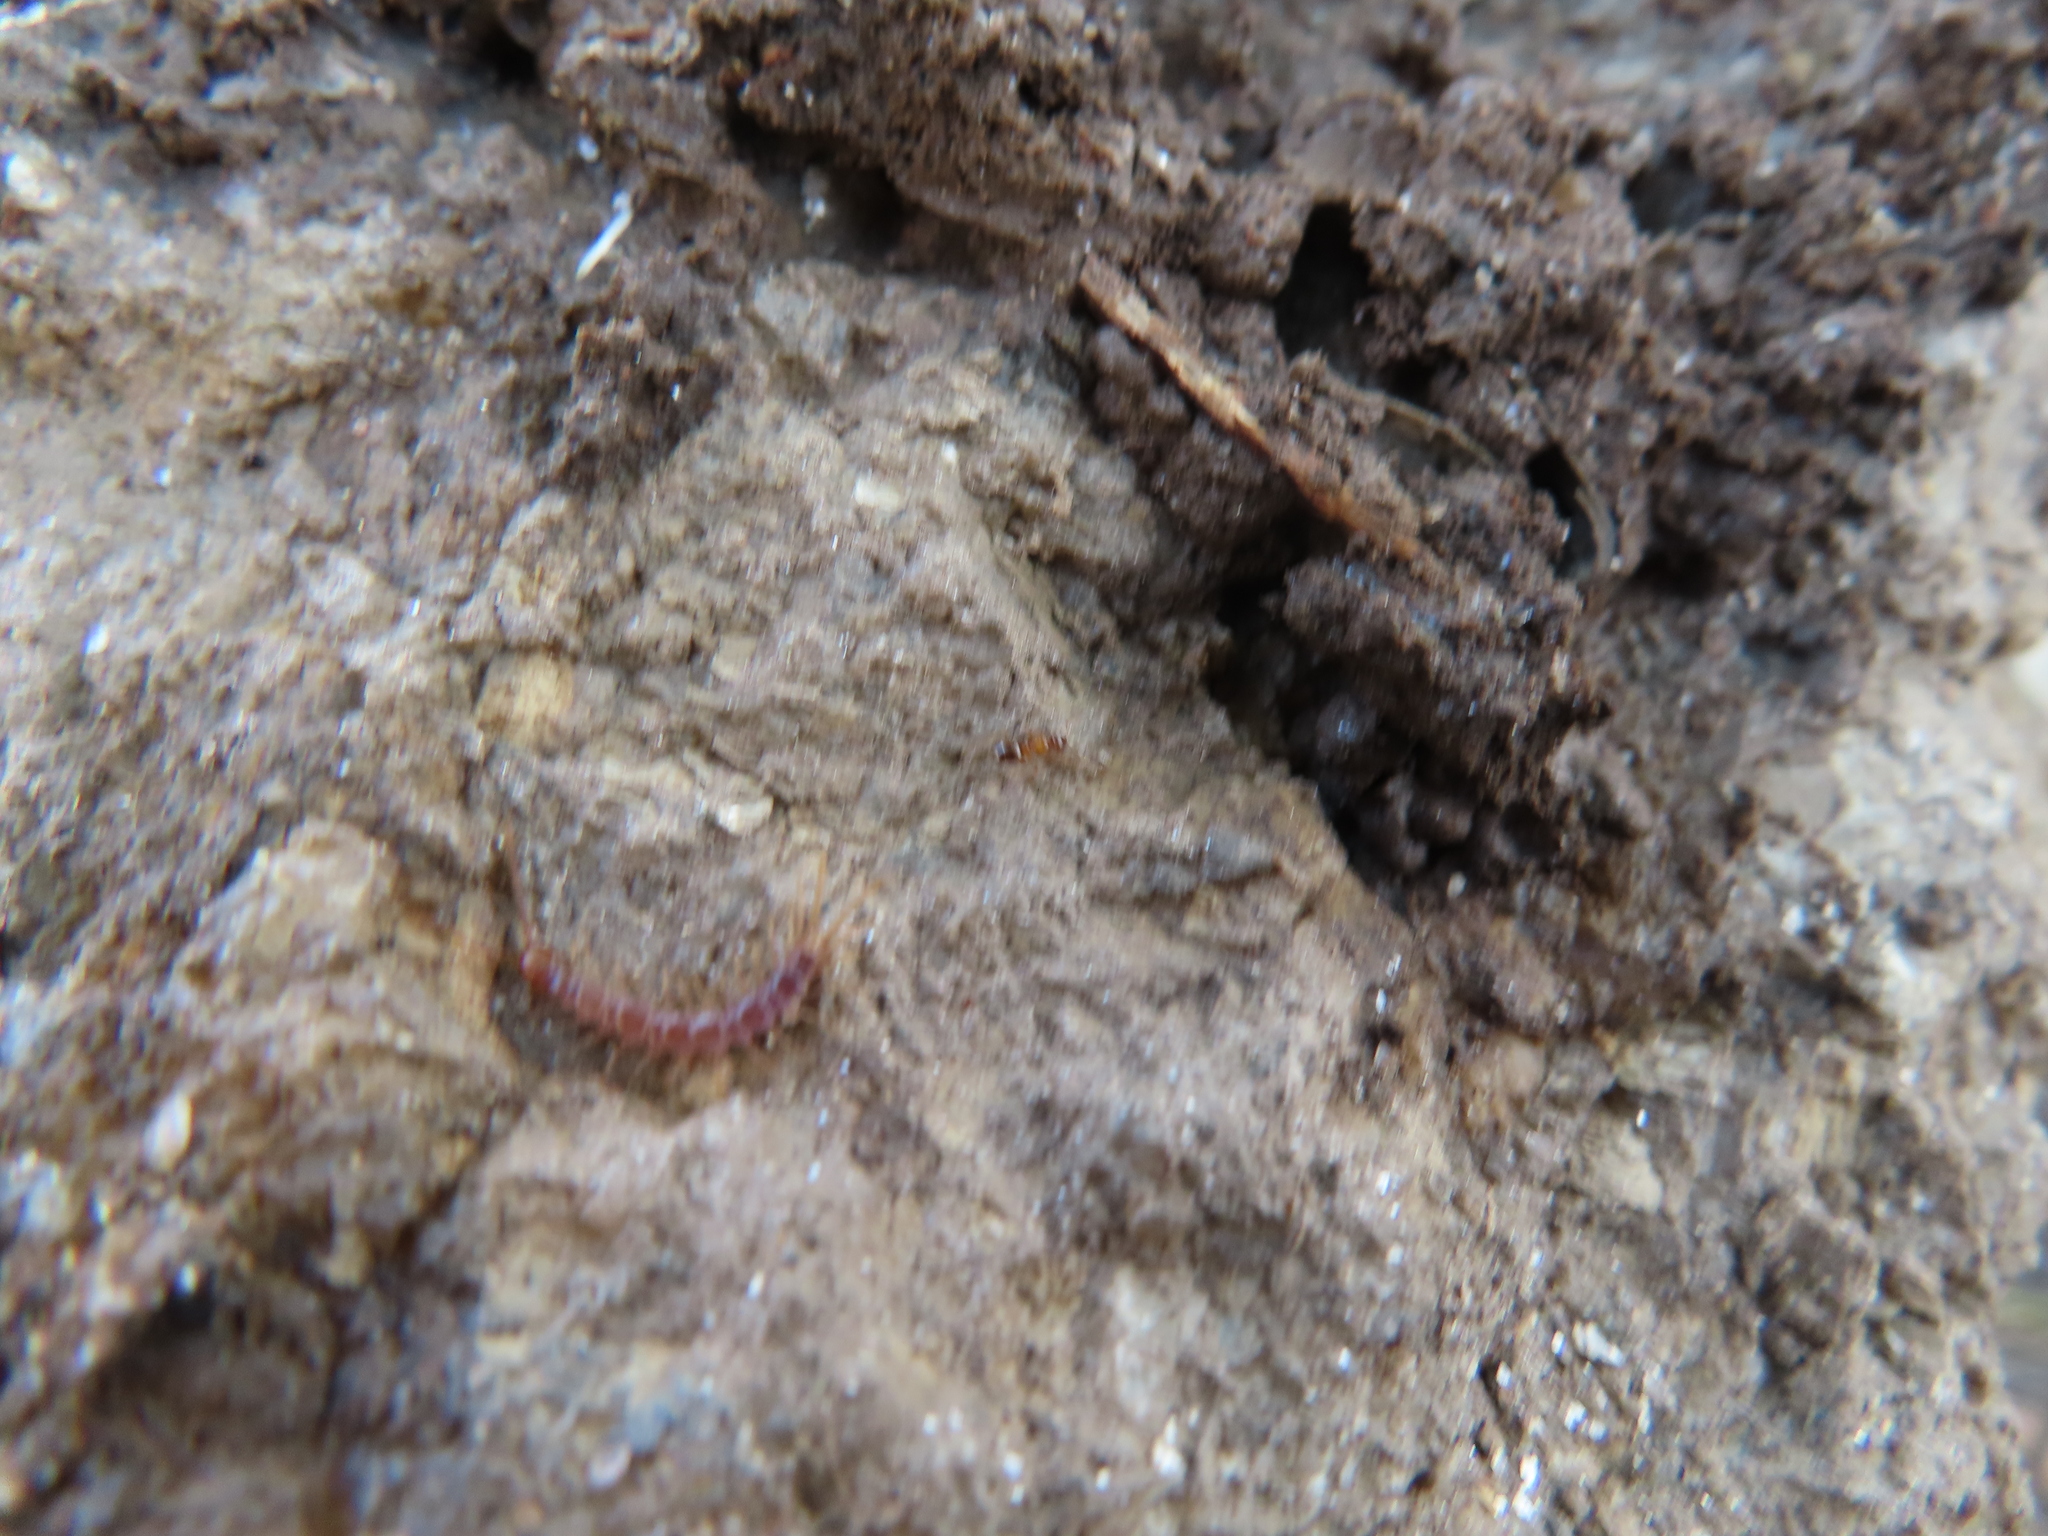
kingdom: Animalia
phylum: Arthropoda
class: Insecta
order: Hymenoptera
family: Formicidae
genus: Prenolepis
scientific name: Prenolepis imparis
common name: Small honey ant
